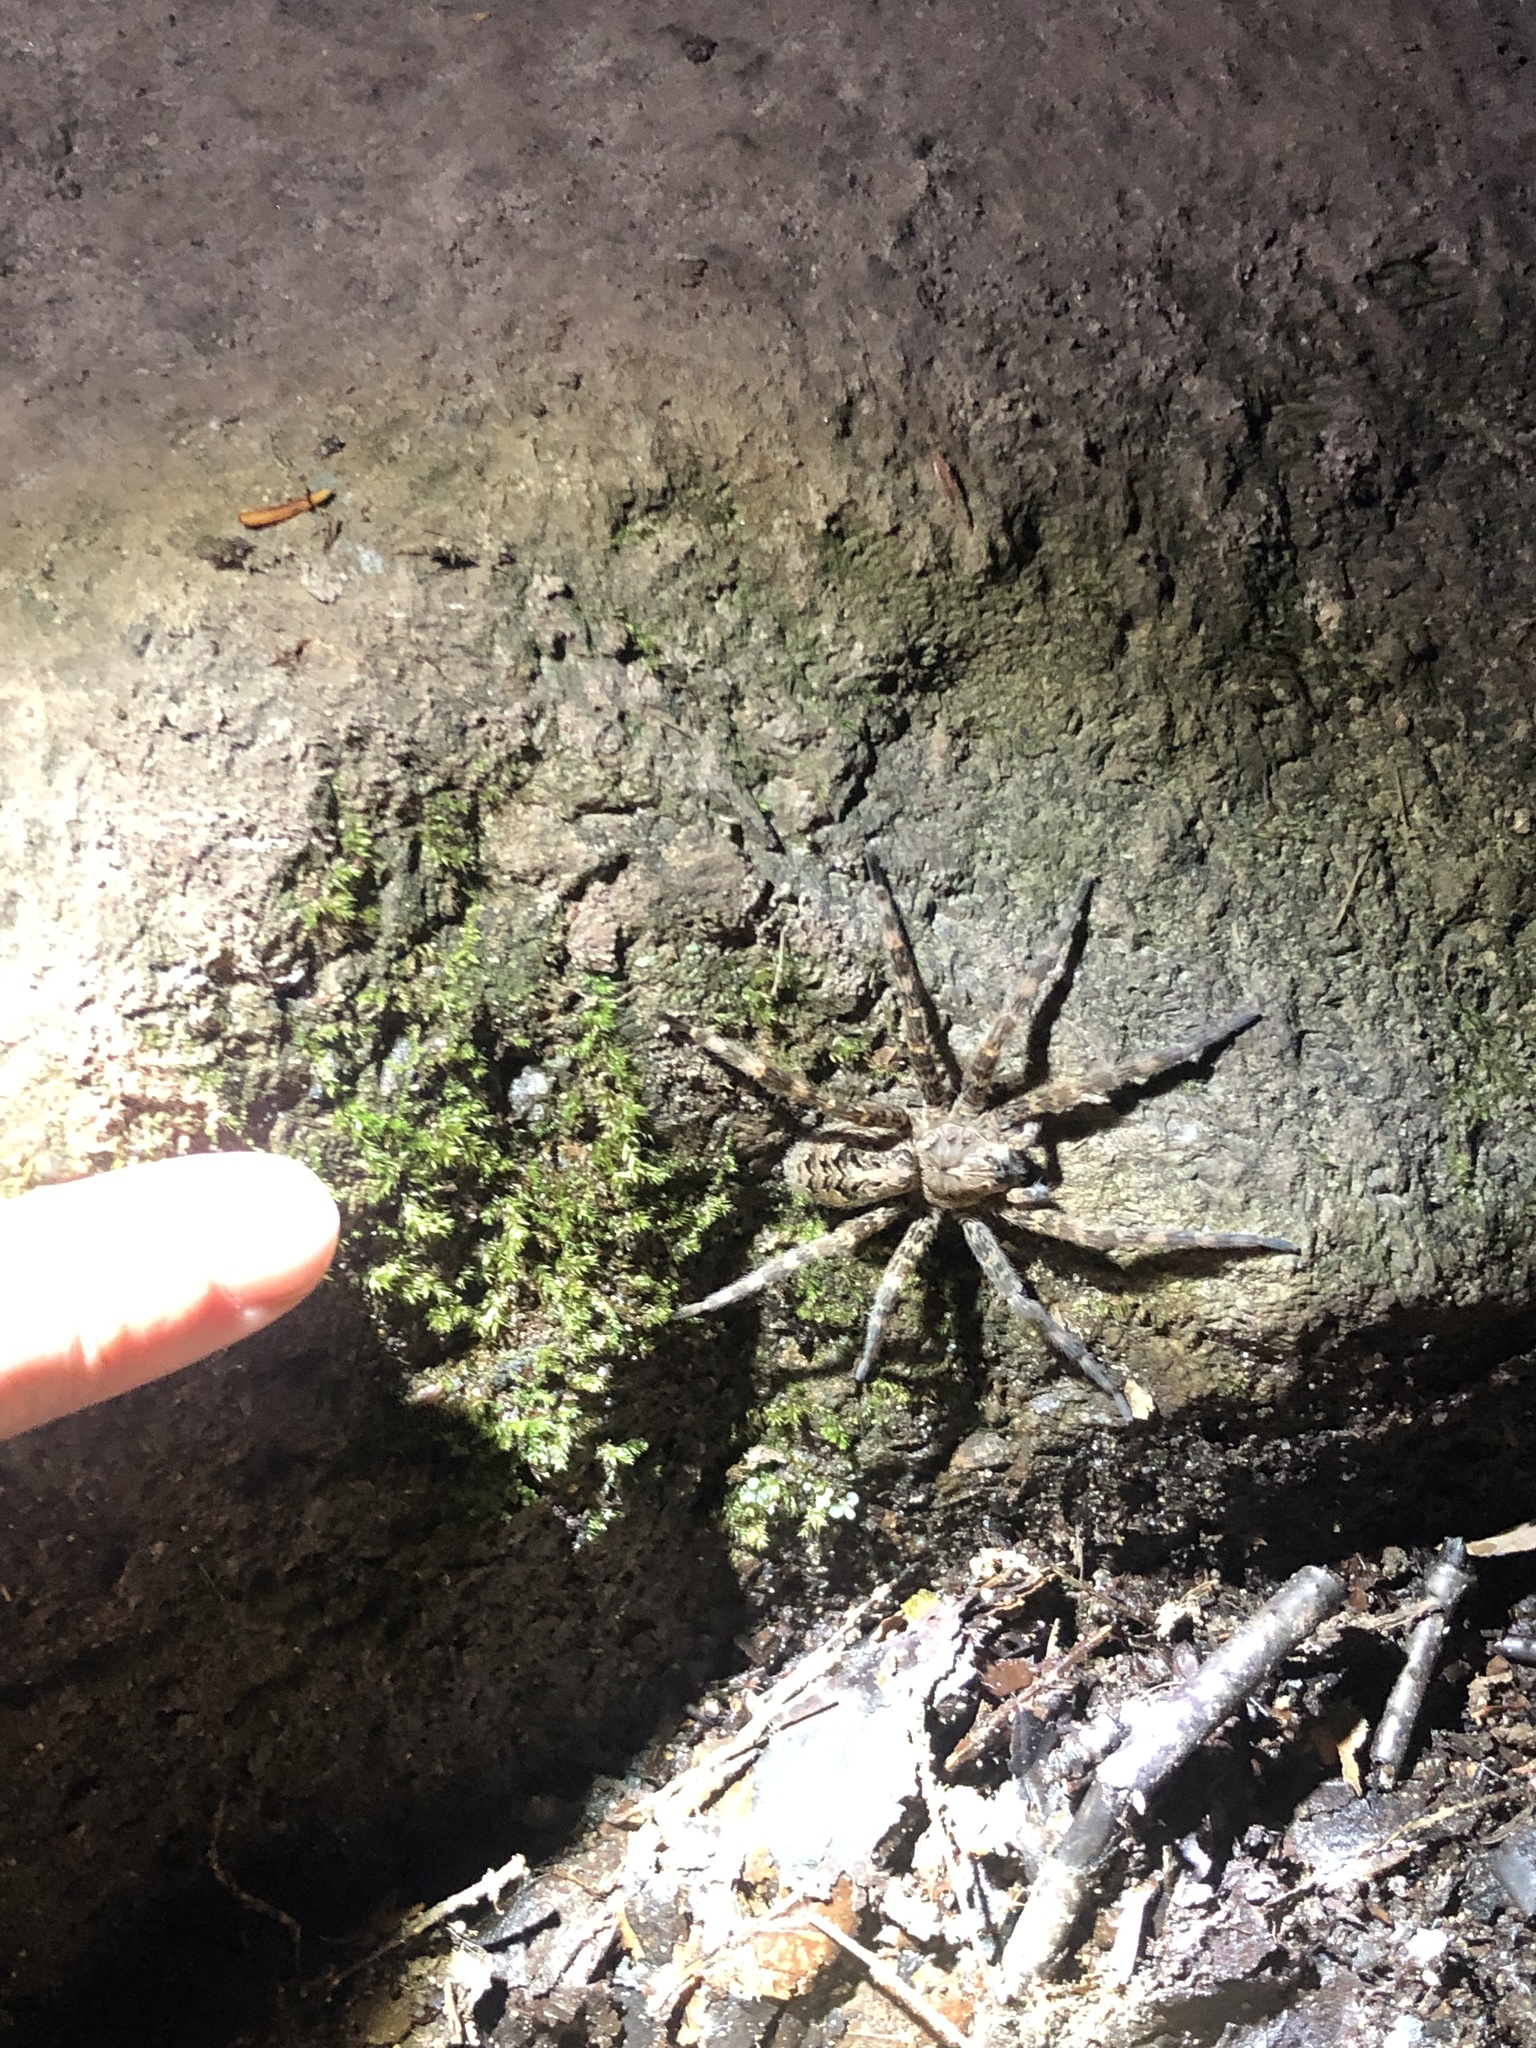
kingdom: Animalia
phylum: Arthropoda
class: Arachnida
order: Araneae
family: Pisauridae
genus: Dolomedes
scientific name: Dolomedes tenebrosus
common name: Dark fishing spider
